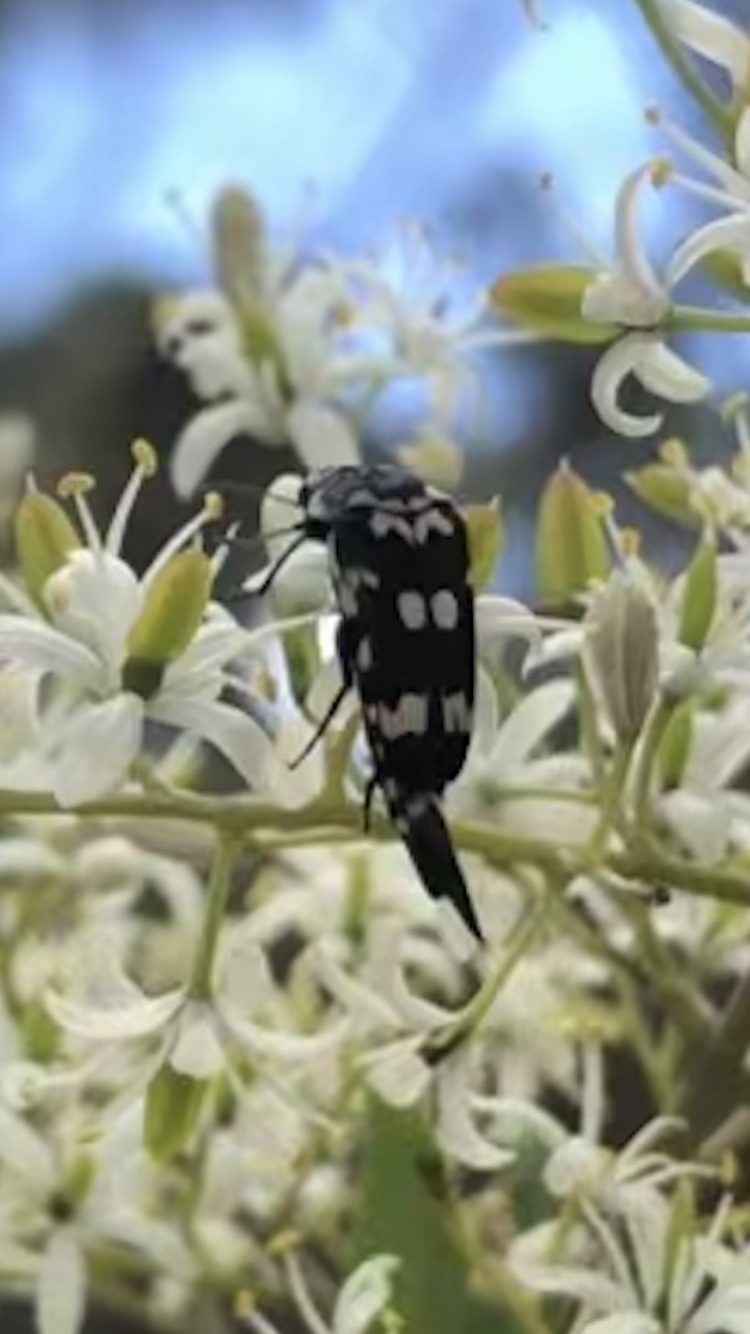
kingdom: Animalia
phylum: Arthropoda
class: Insecta
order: Coleoptera
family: Mordellidae
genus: Hoshihananomia
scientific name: Hoshihananomia
